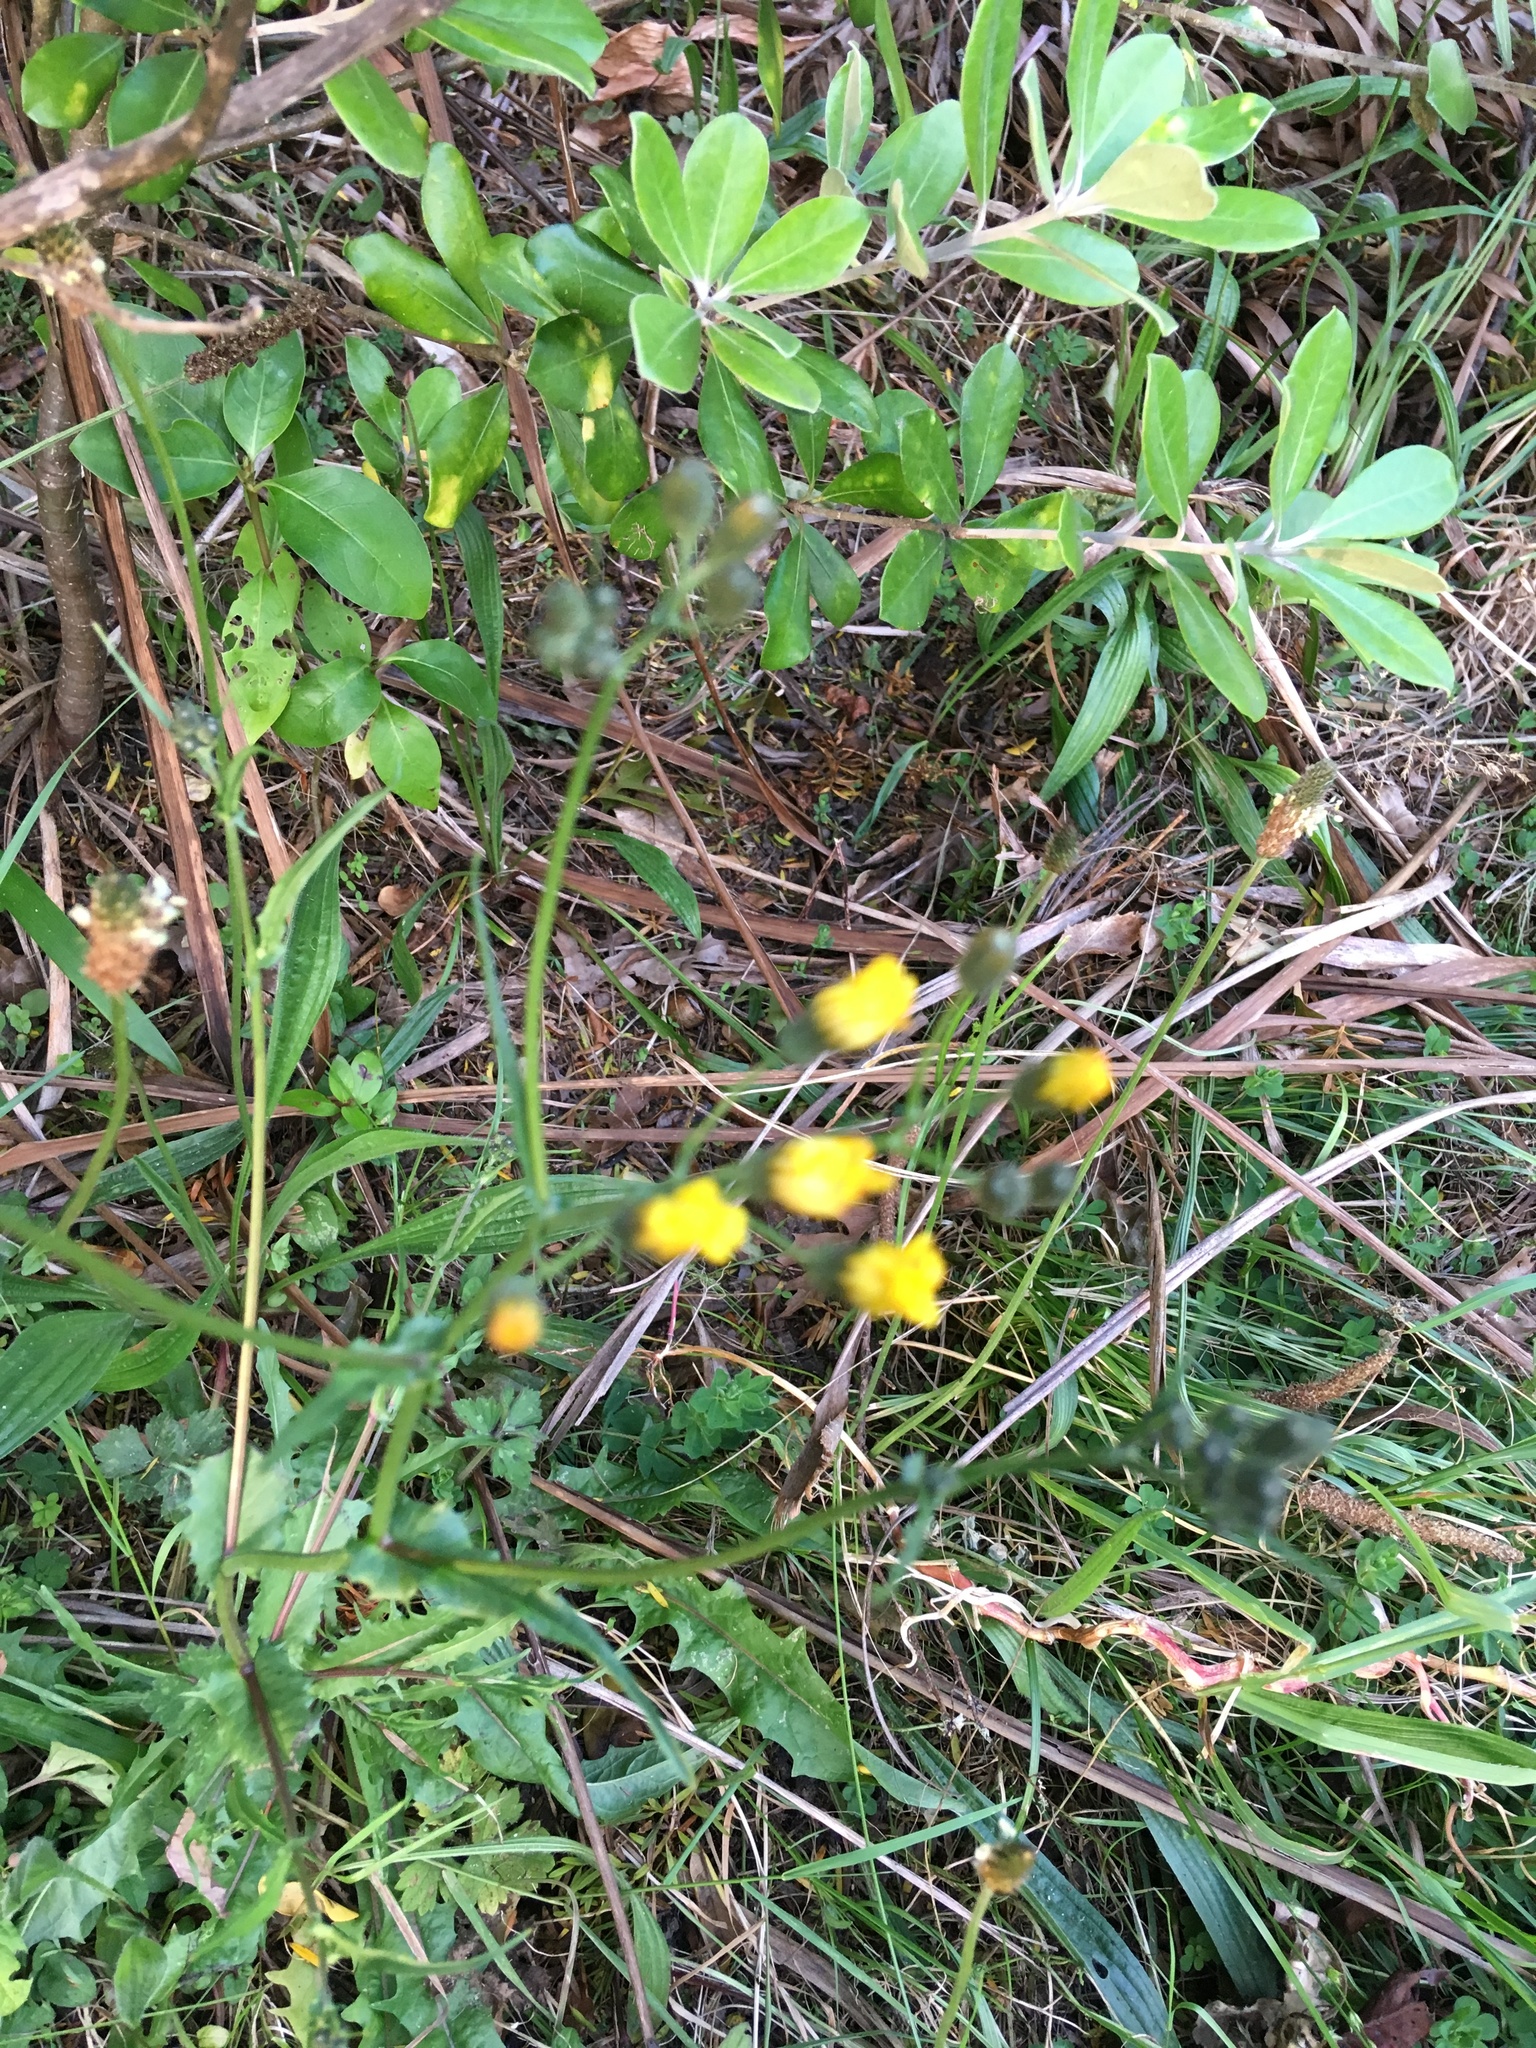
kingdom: Plantae
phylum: Tracheophyta
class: Magnoliopsida
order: Apiales
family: Pittosporaceae
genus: Pittosporum
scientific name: Pittosporum crassifolium
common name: Karo
